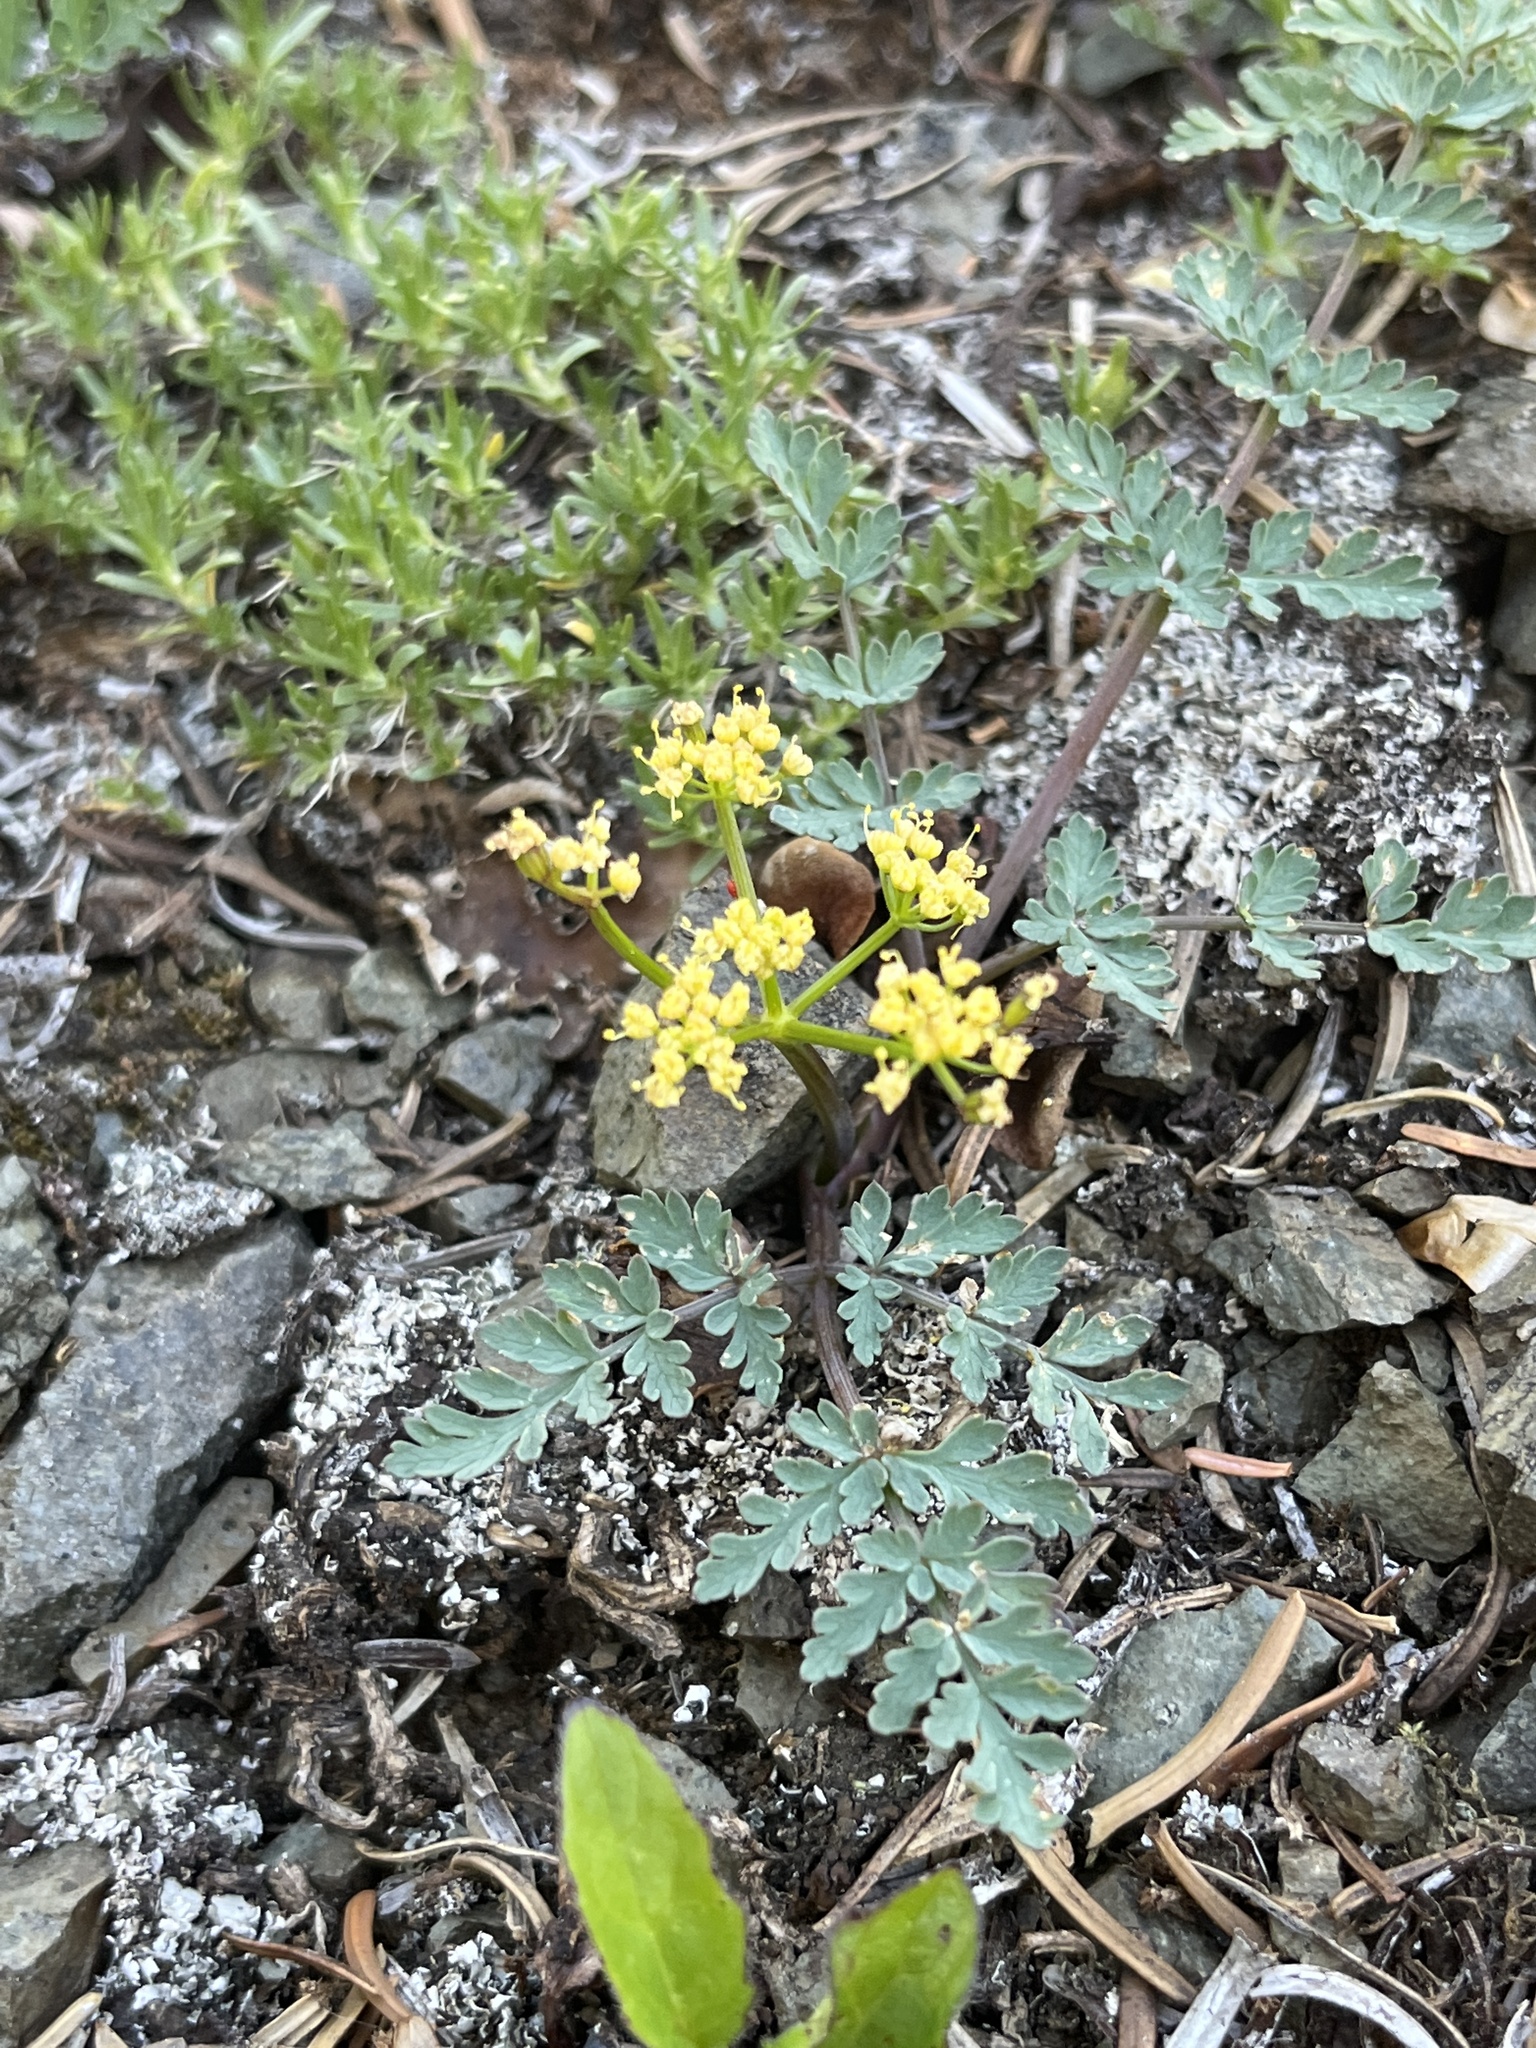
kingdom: Plantae
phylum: Tracheophyta
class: Magnoliopsida
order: Apiales
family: Apiaceae
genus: Lomatium
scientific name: Lomatium martindalei
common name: Cascade desert-parsley
